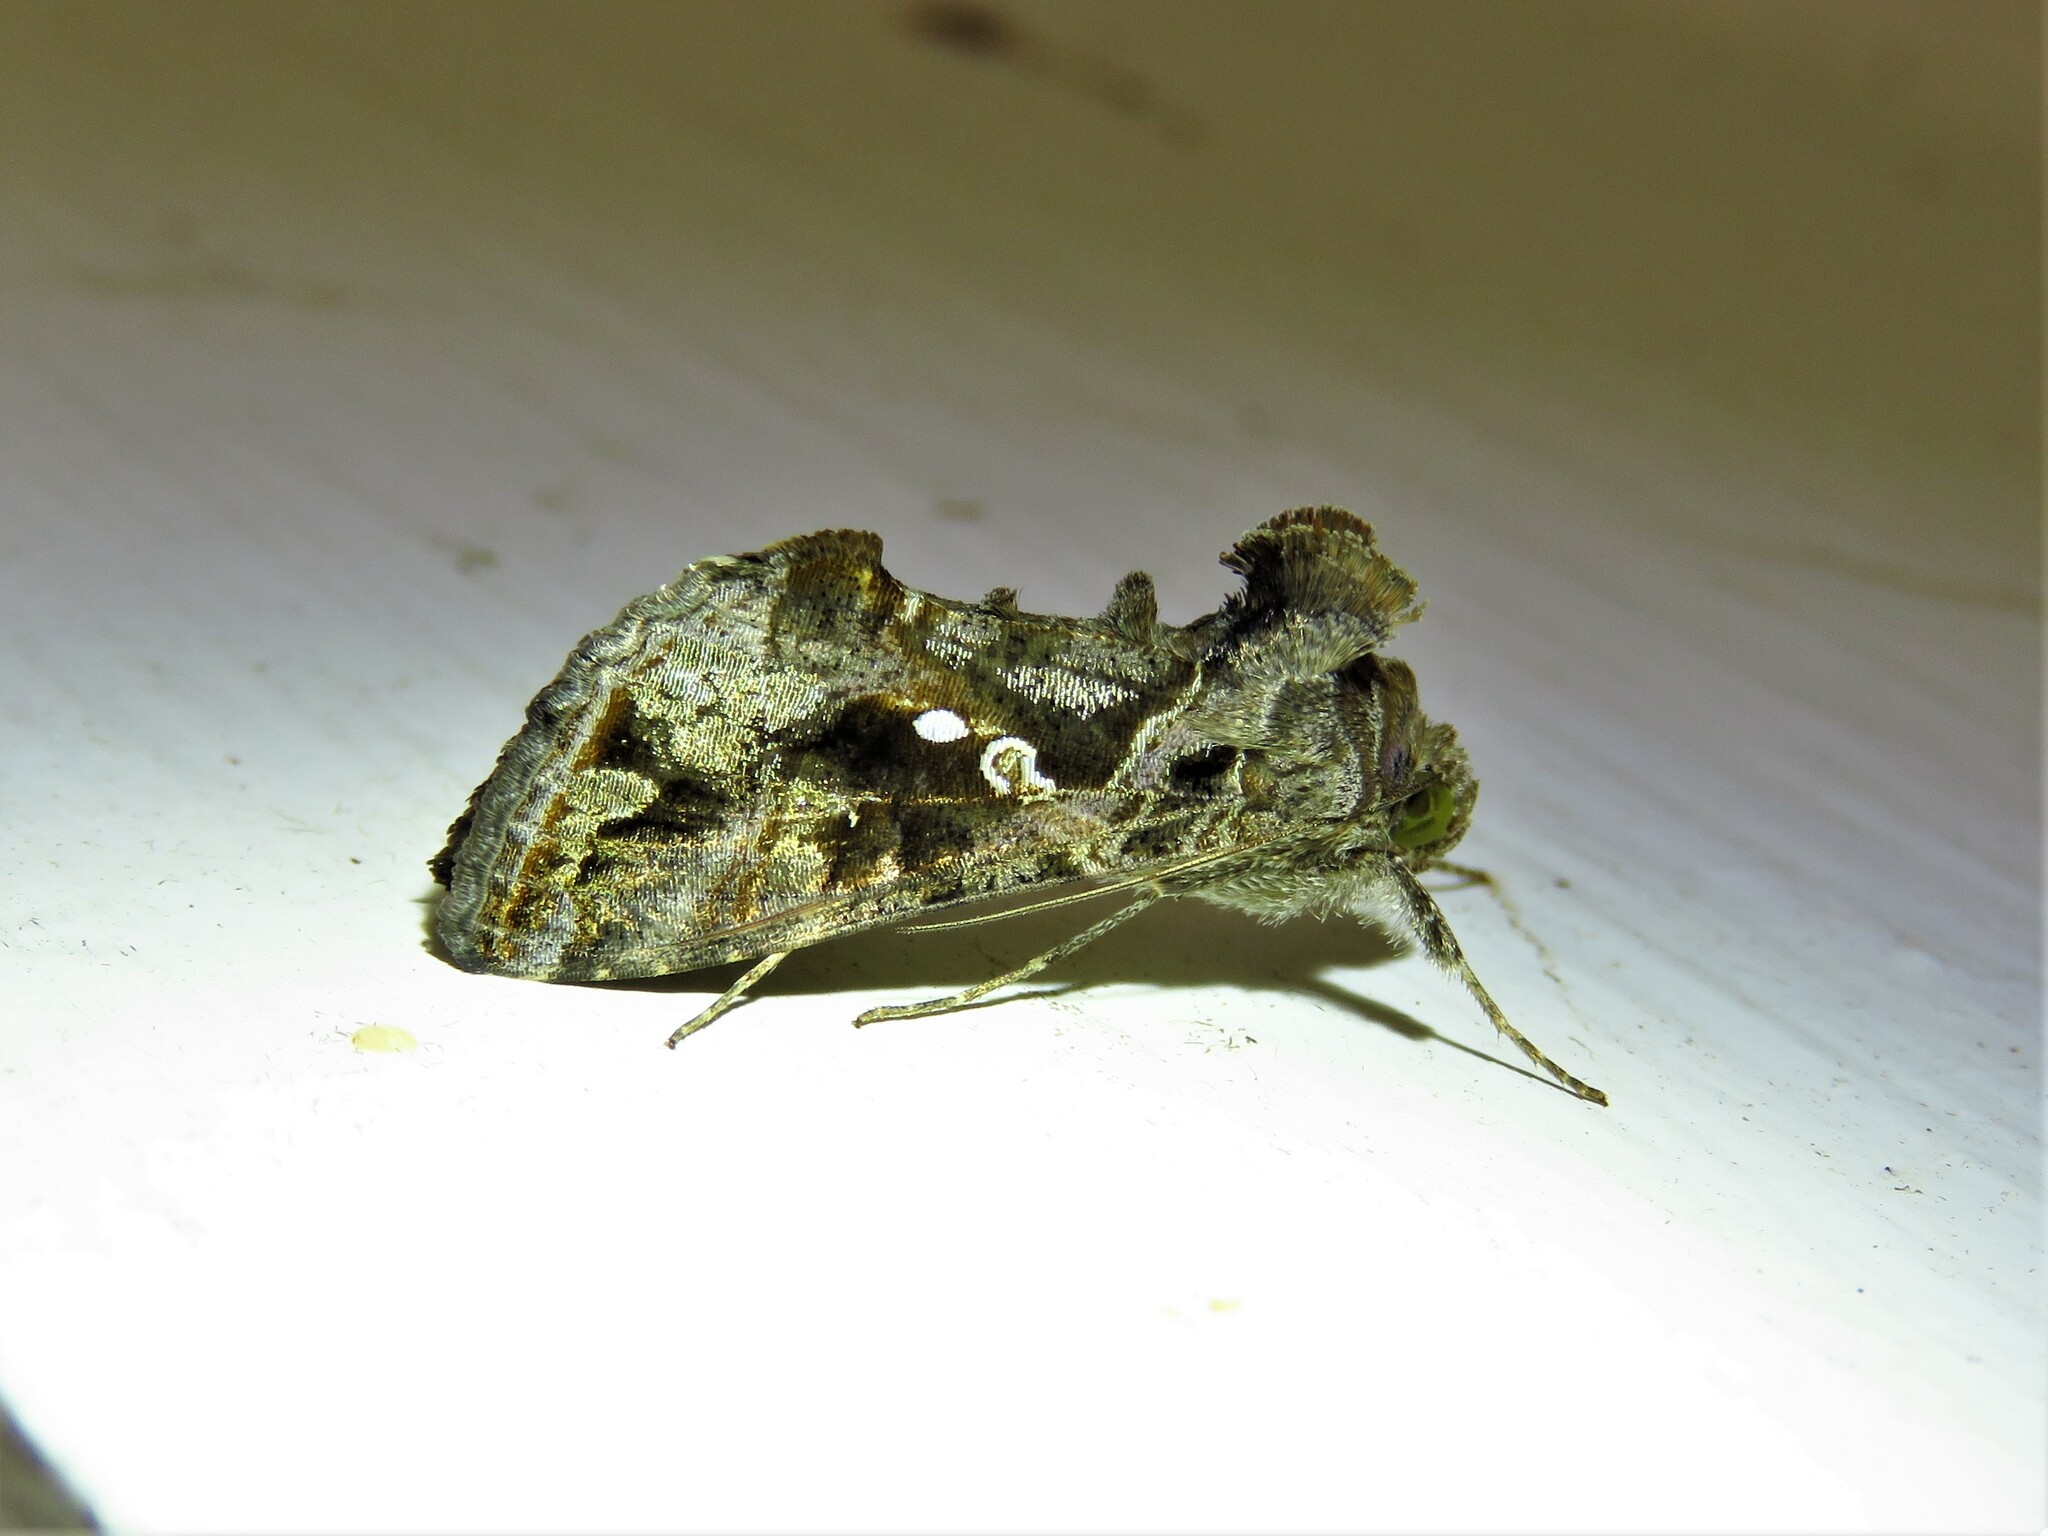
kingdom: Animalia
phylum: Arthropoda
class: Insecta
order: Lepidoptera
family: Noctuidae
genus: Chrysodeixis
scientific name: Chrysodeixis includens
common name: Cutworm moth
